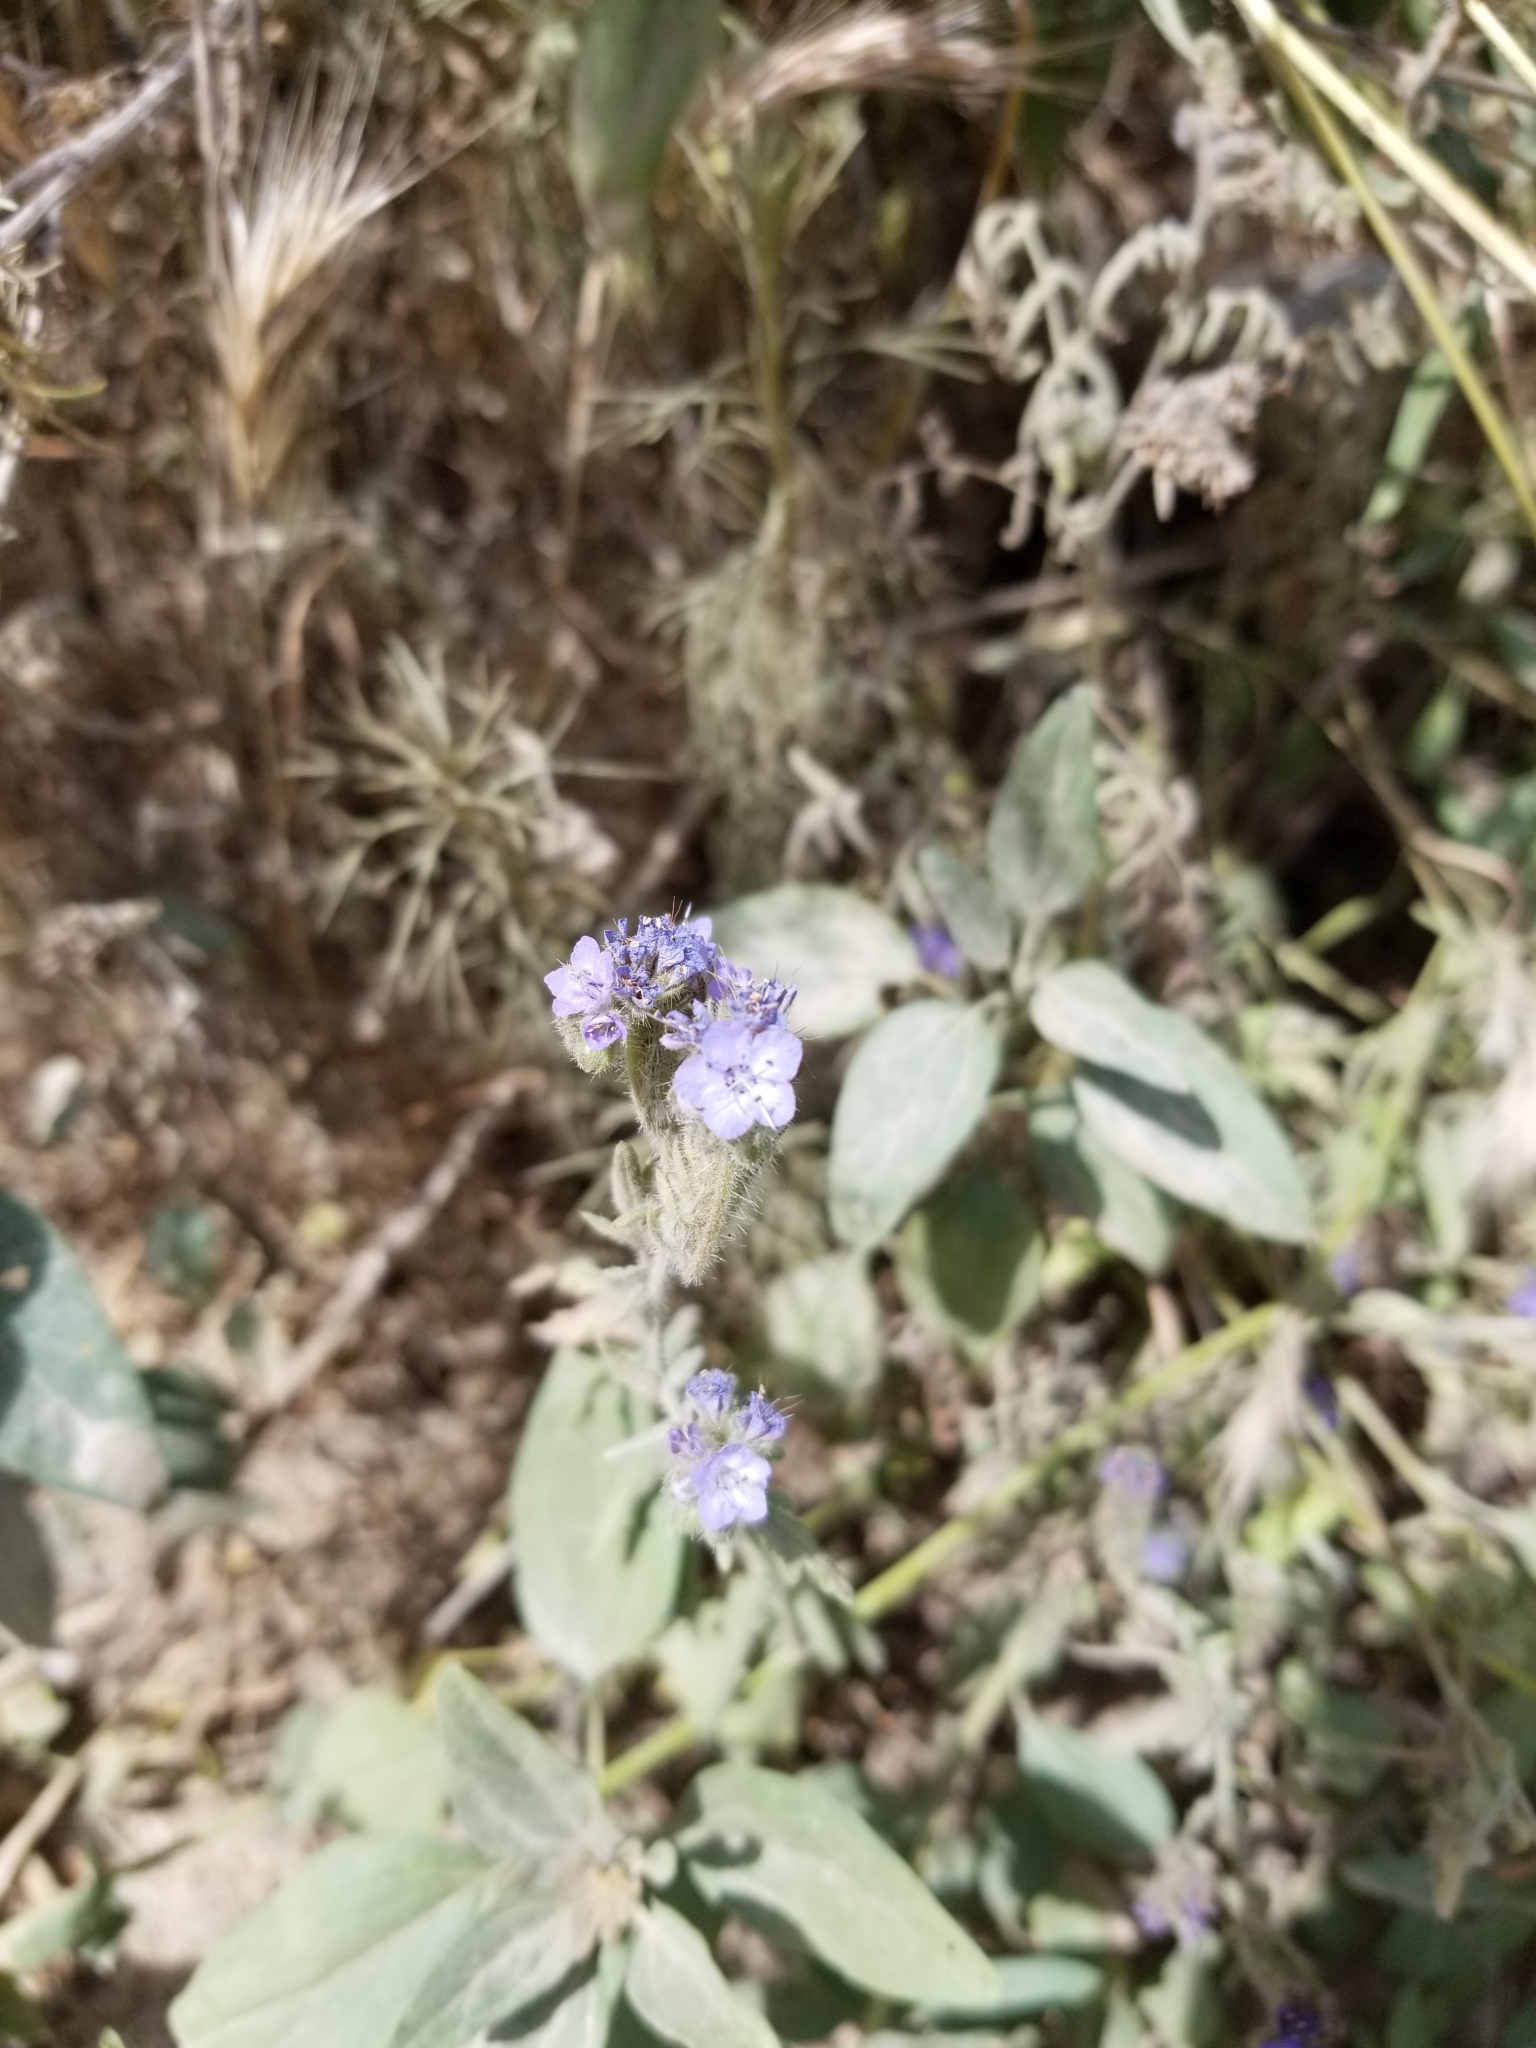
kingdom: Plantae
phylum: Tracheophyta
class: Magnoliopsida
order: Boraginales
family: Hydrophyllaceae
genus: Phacelia
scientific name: Phacelia distans
